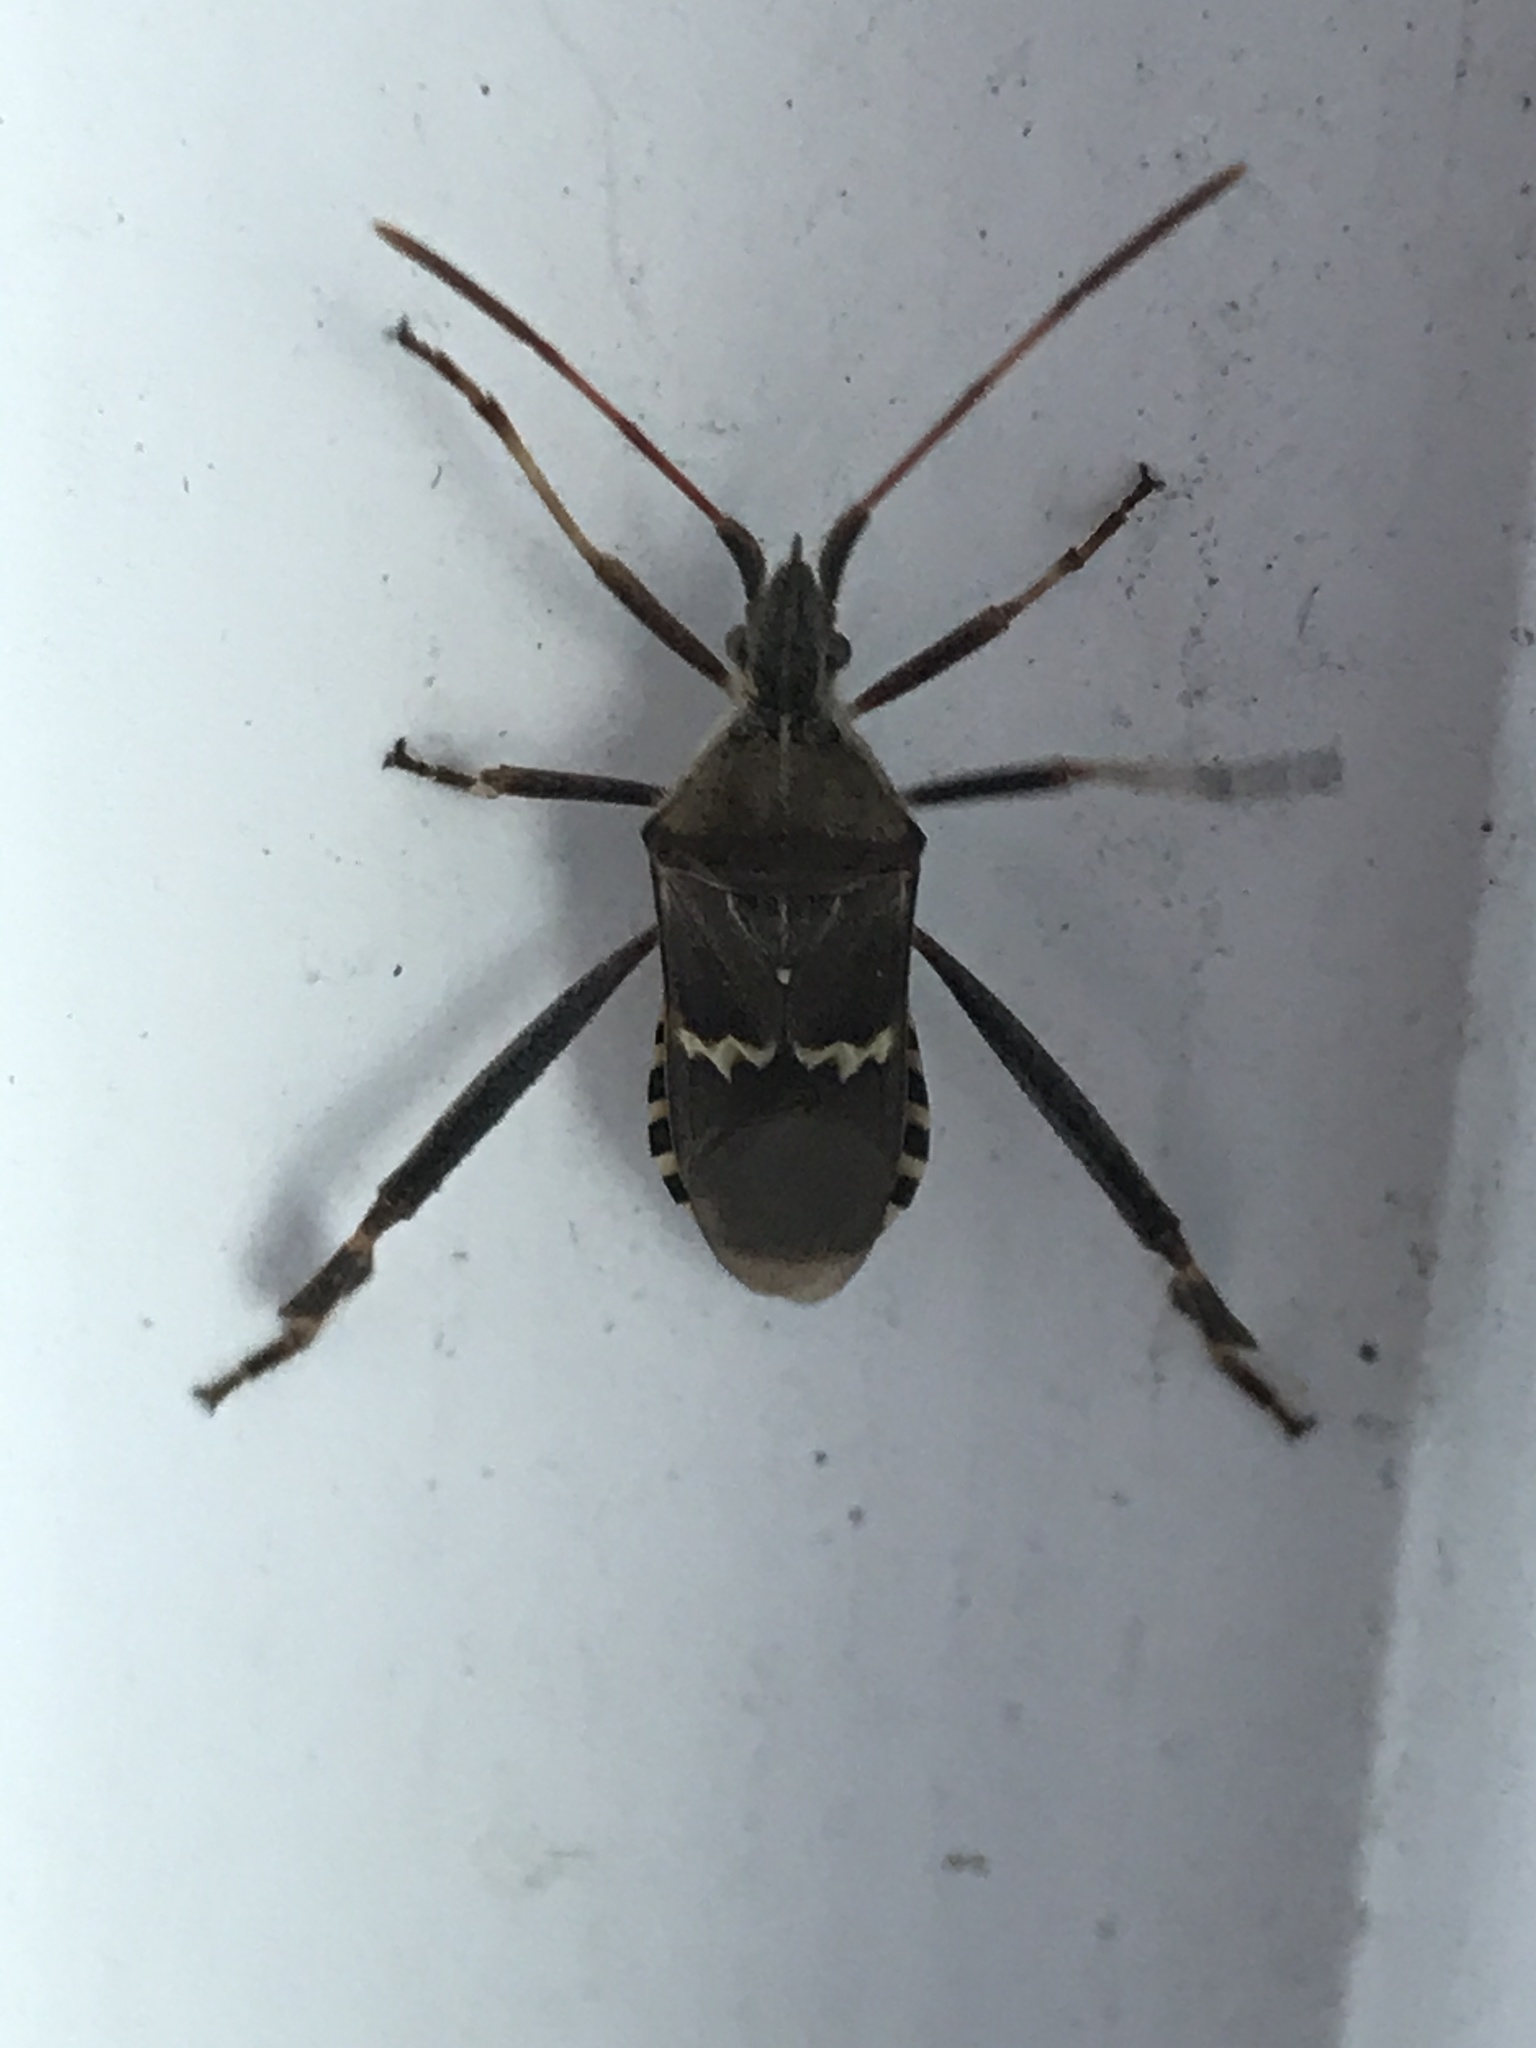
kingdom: Animalia
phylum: Arthropoda
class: Insecta
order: Hemiptera
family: Coreidae
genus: Leptoglossus
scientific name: Leptoglossus clypealis
